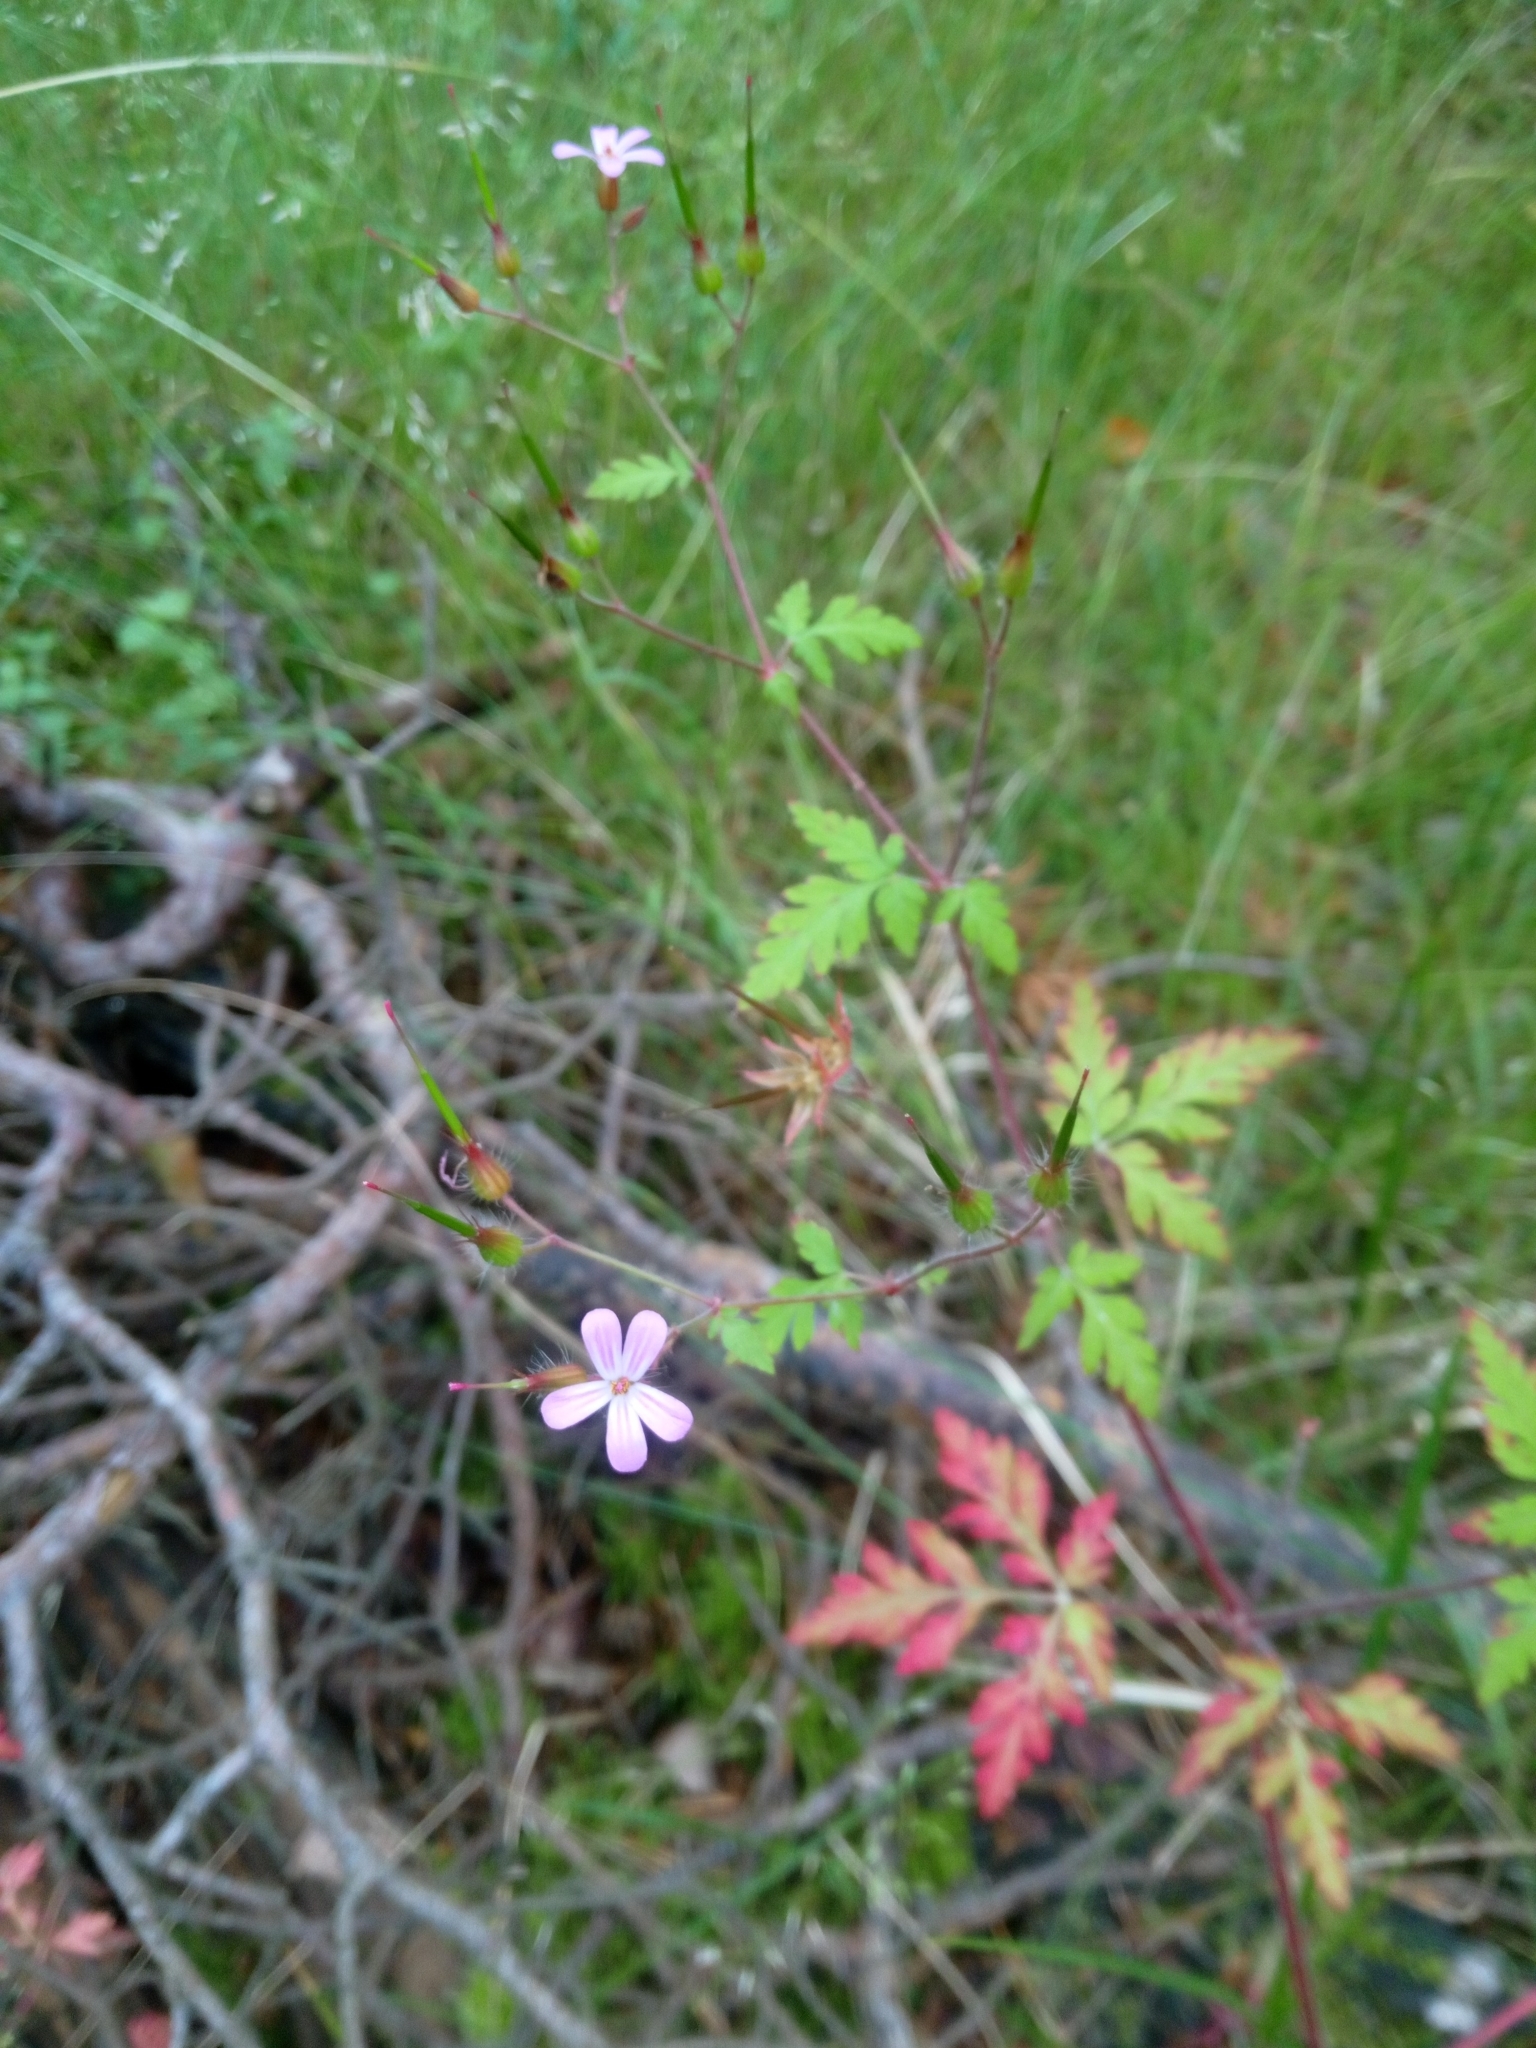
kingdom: Plantae
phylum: Tracheophyta
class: Magnoliopsida
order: Geraniales
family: Geraniaceae
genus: Geranium
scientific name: Geranium robertianum
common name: Herb-robert
